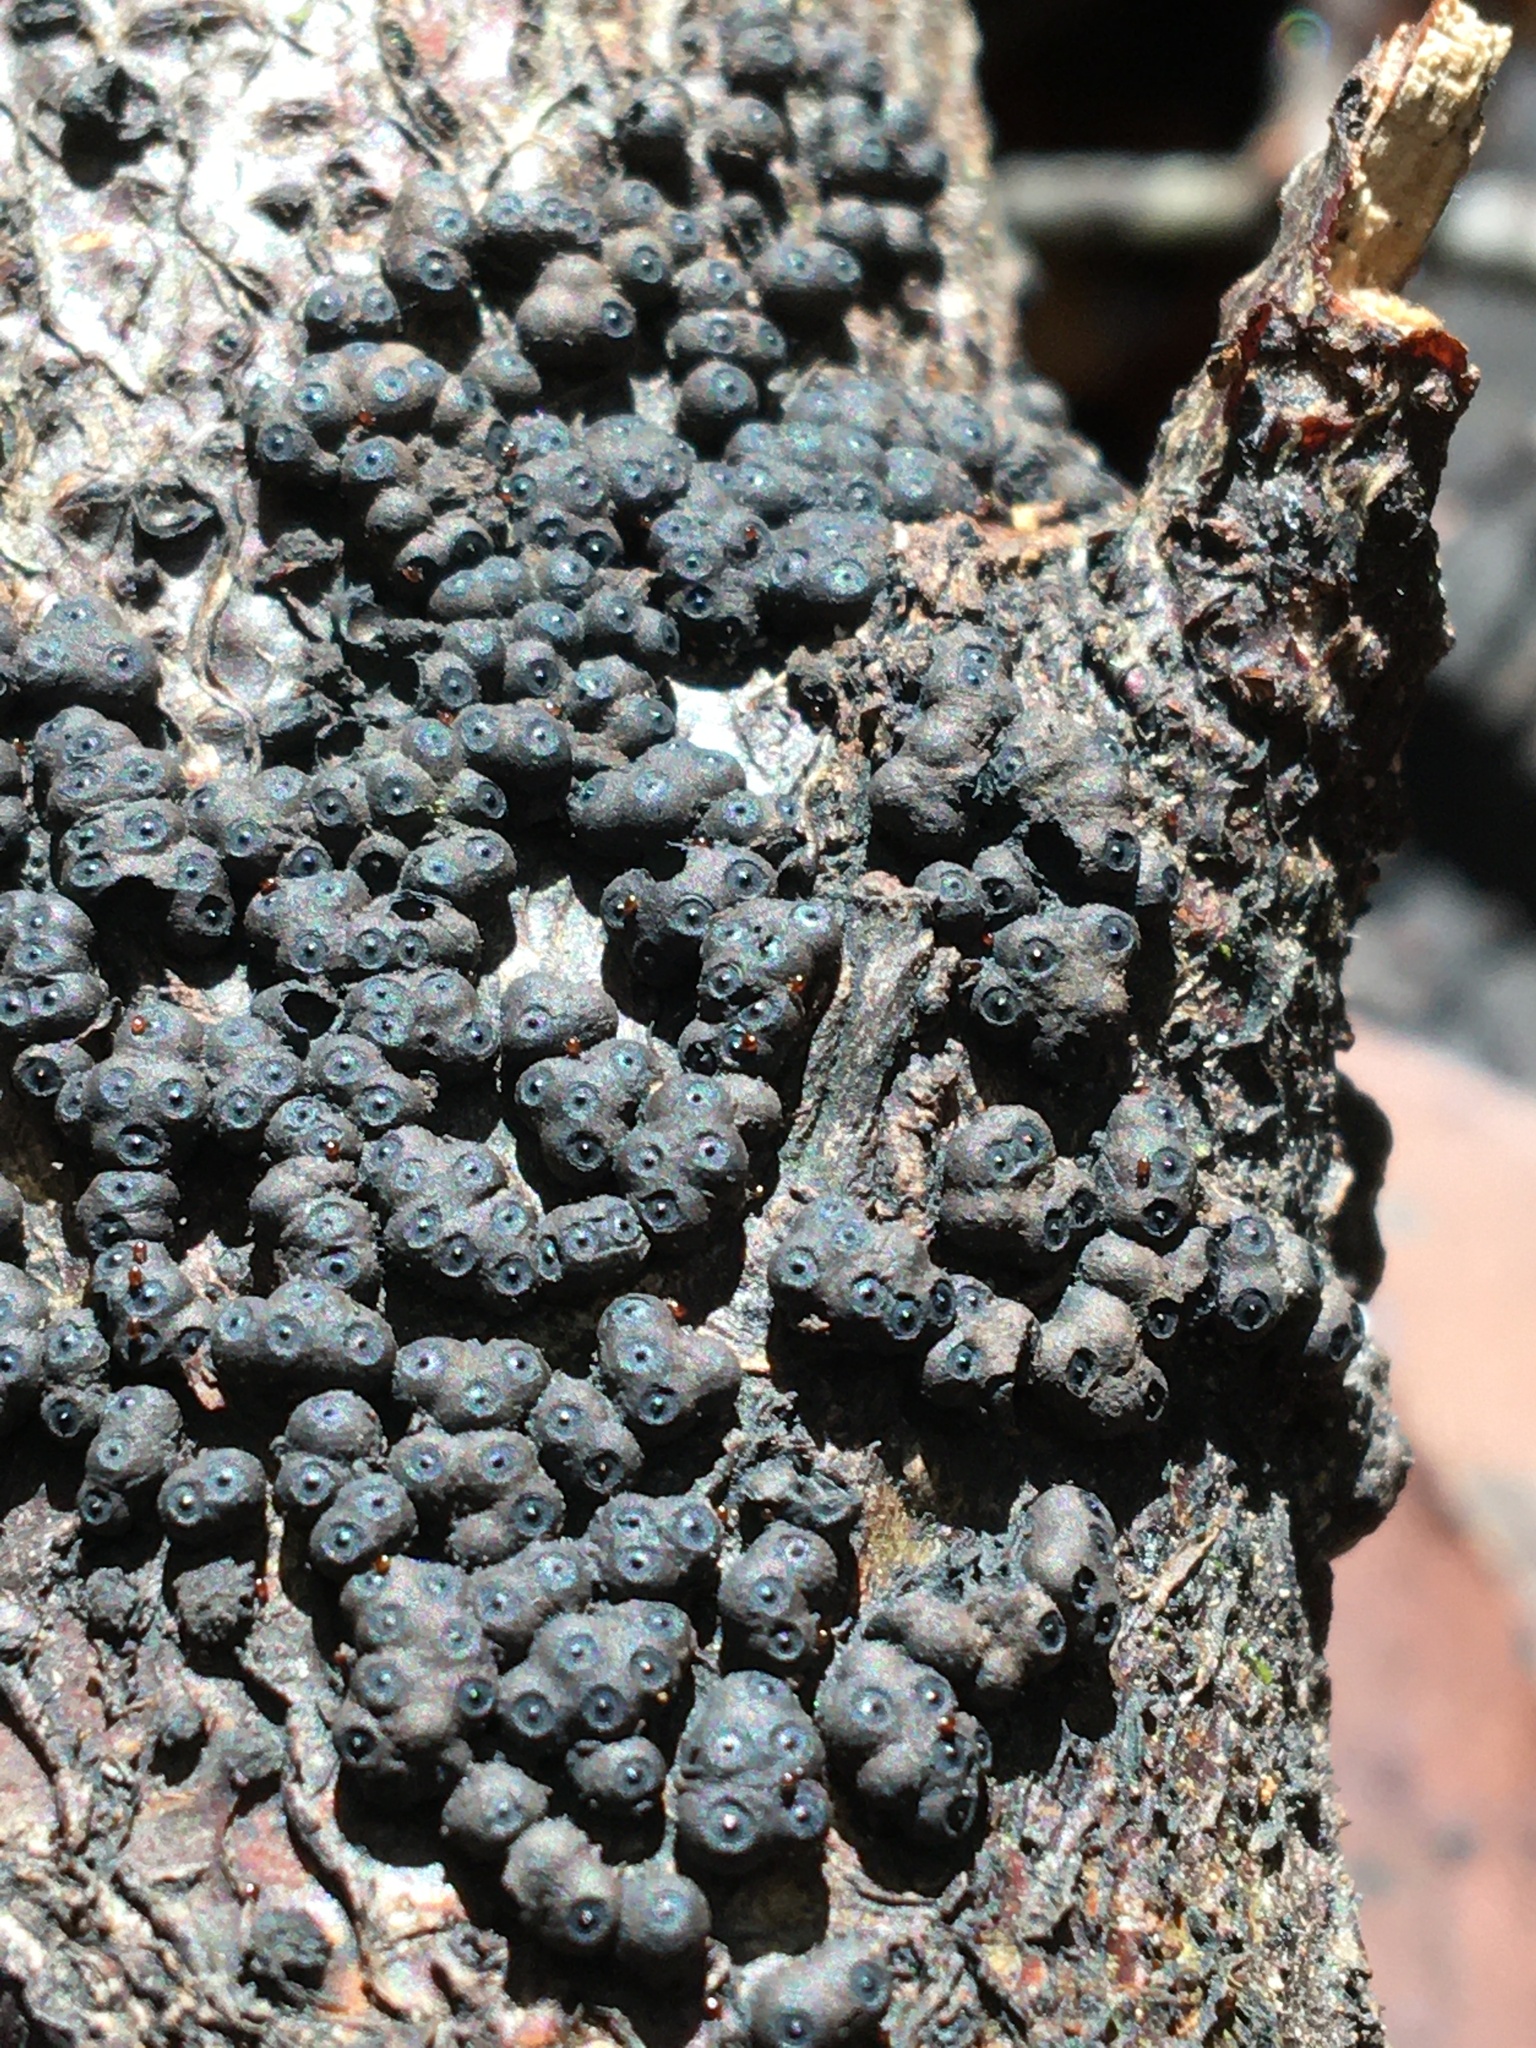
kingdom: Fungi
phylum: Ascomycota
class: Sordariomycetes
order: Xylariales
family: Hypoxylaceae
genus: Annulohypoxylon
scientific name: Annulohypoxylon bovei
